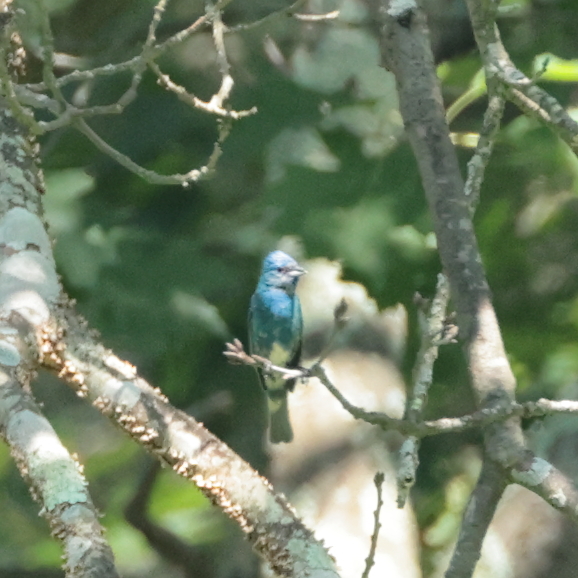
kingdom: Animalia
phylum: Chordata
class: Aves
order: Passeriformes
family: Cardinalidae
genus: Passerina
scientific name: Passerina cyanea
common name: Indigo bunting
